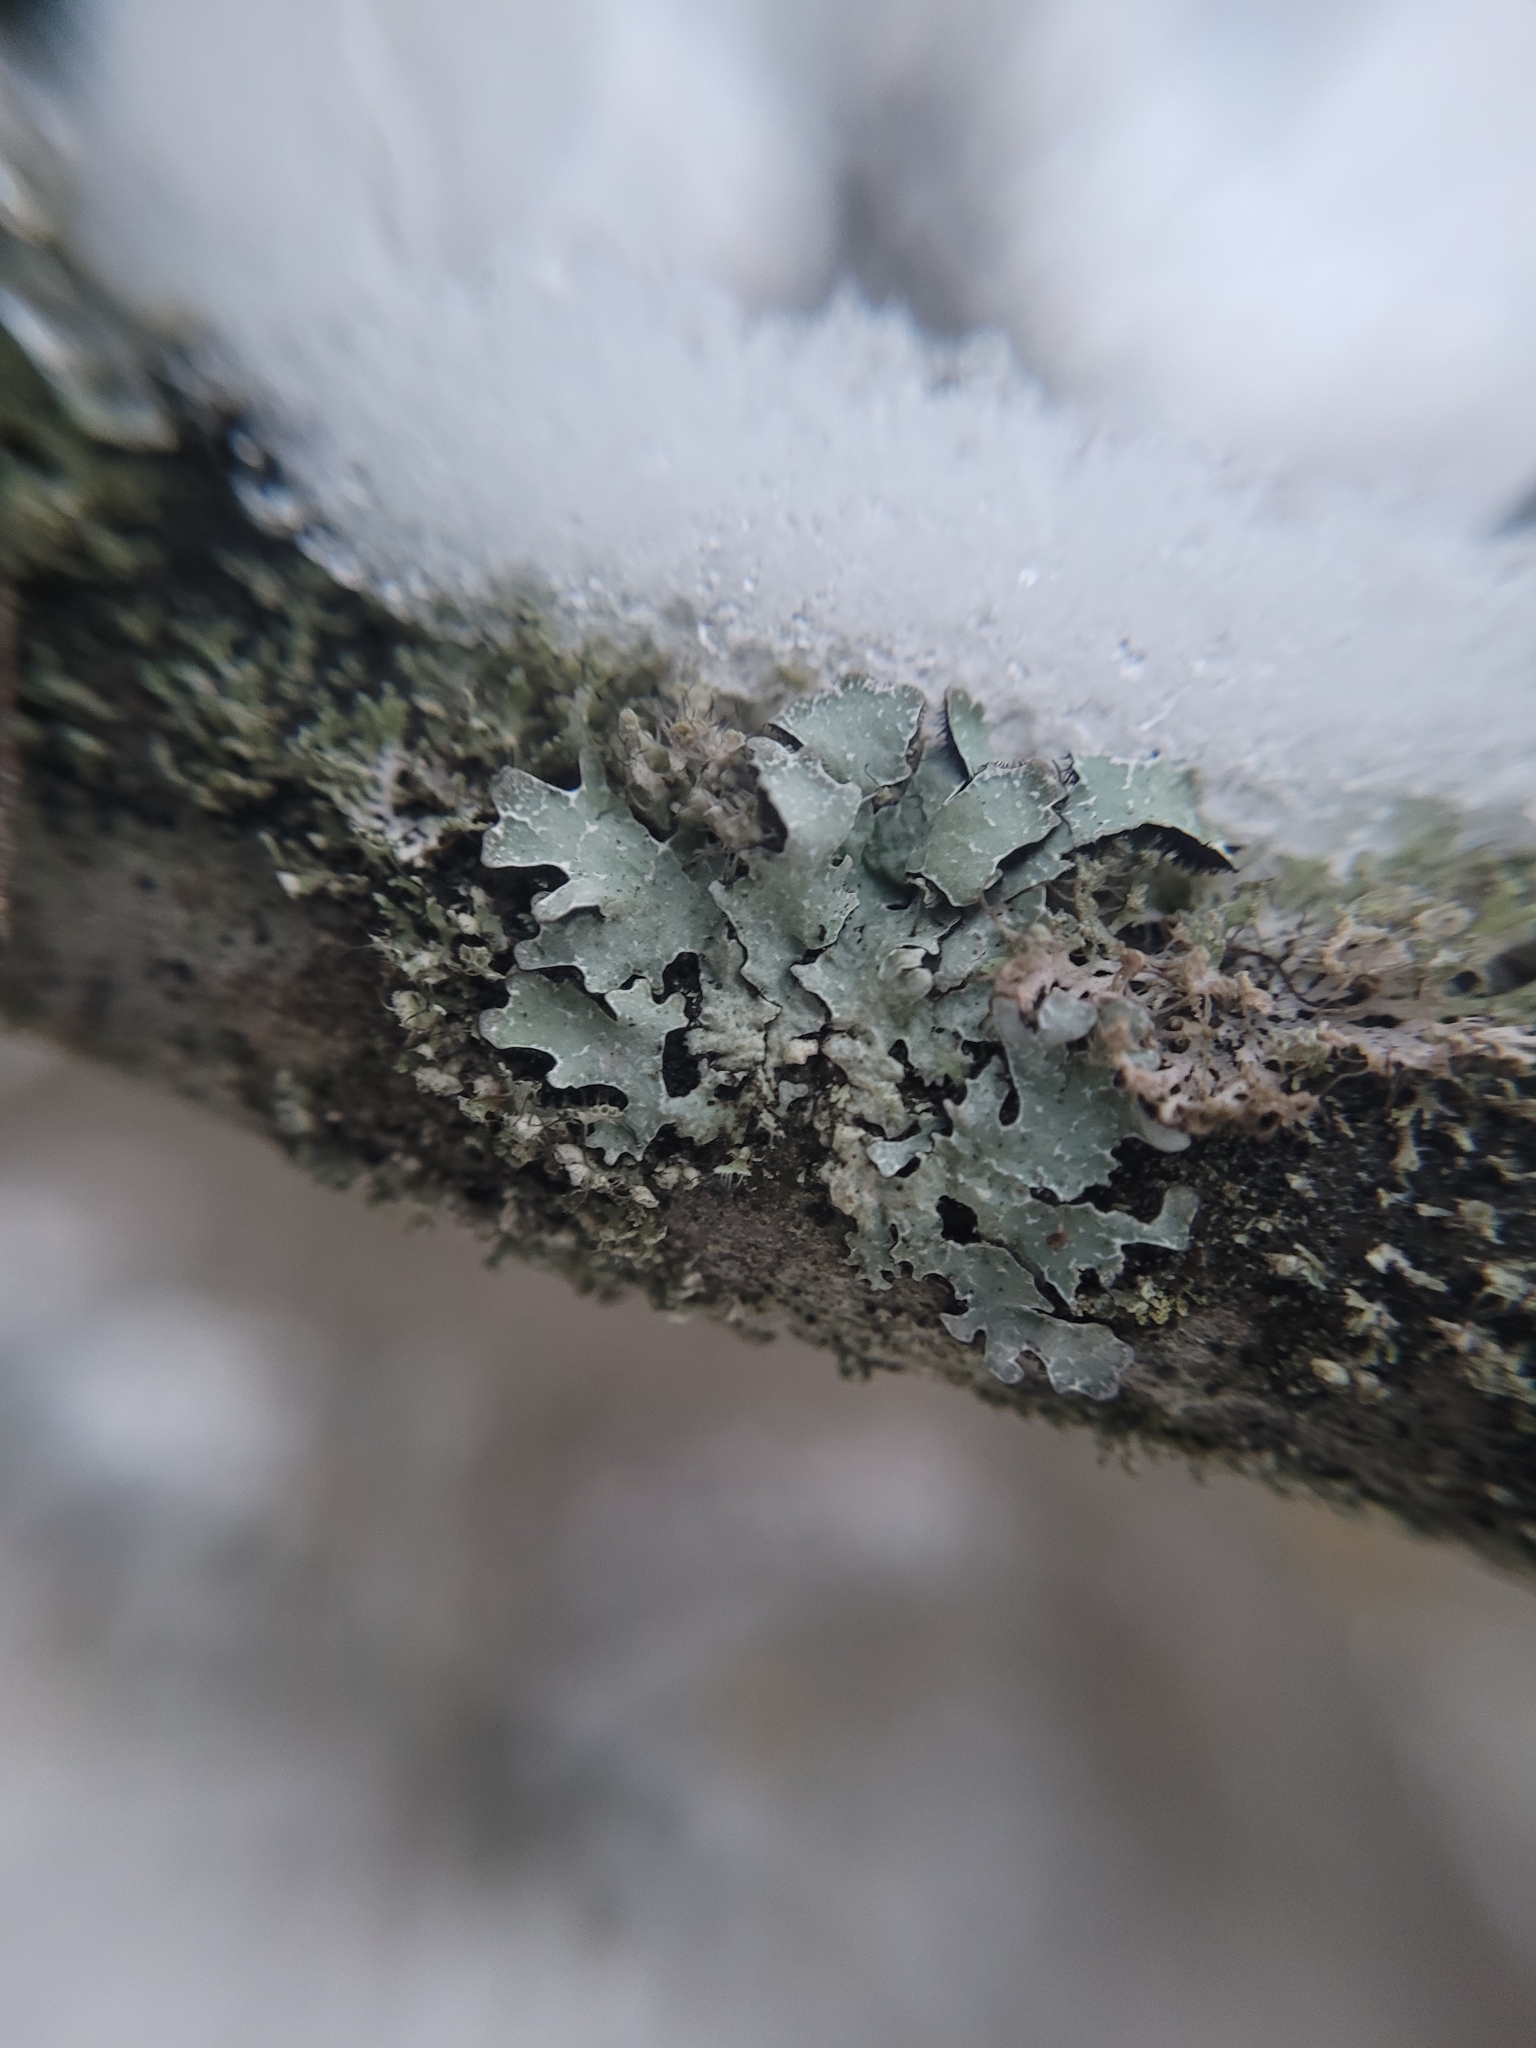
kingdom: Fungi
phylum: Ascomycota
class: Lecanoromycetes
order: Lecanorales
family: Parmeliaceae
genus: Parmelia
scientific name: Parmelia sulcata
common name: Netted shield lichen
